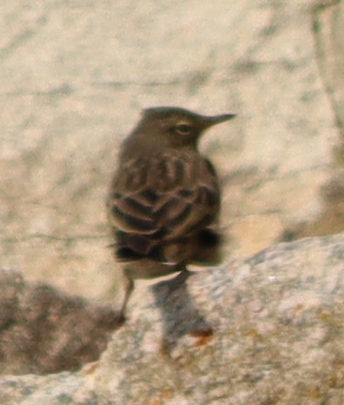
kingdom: Animalia
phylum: Chordata
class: Aves
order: Passeriformes
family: Motacillidae
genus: Anthus
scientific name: Anthus petrosus
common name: Eurasian rock pipit
